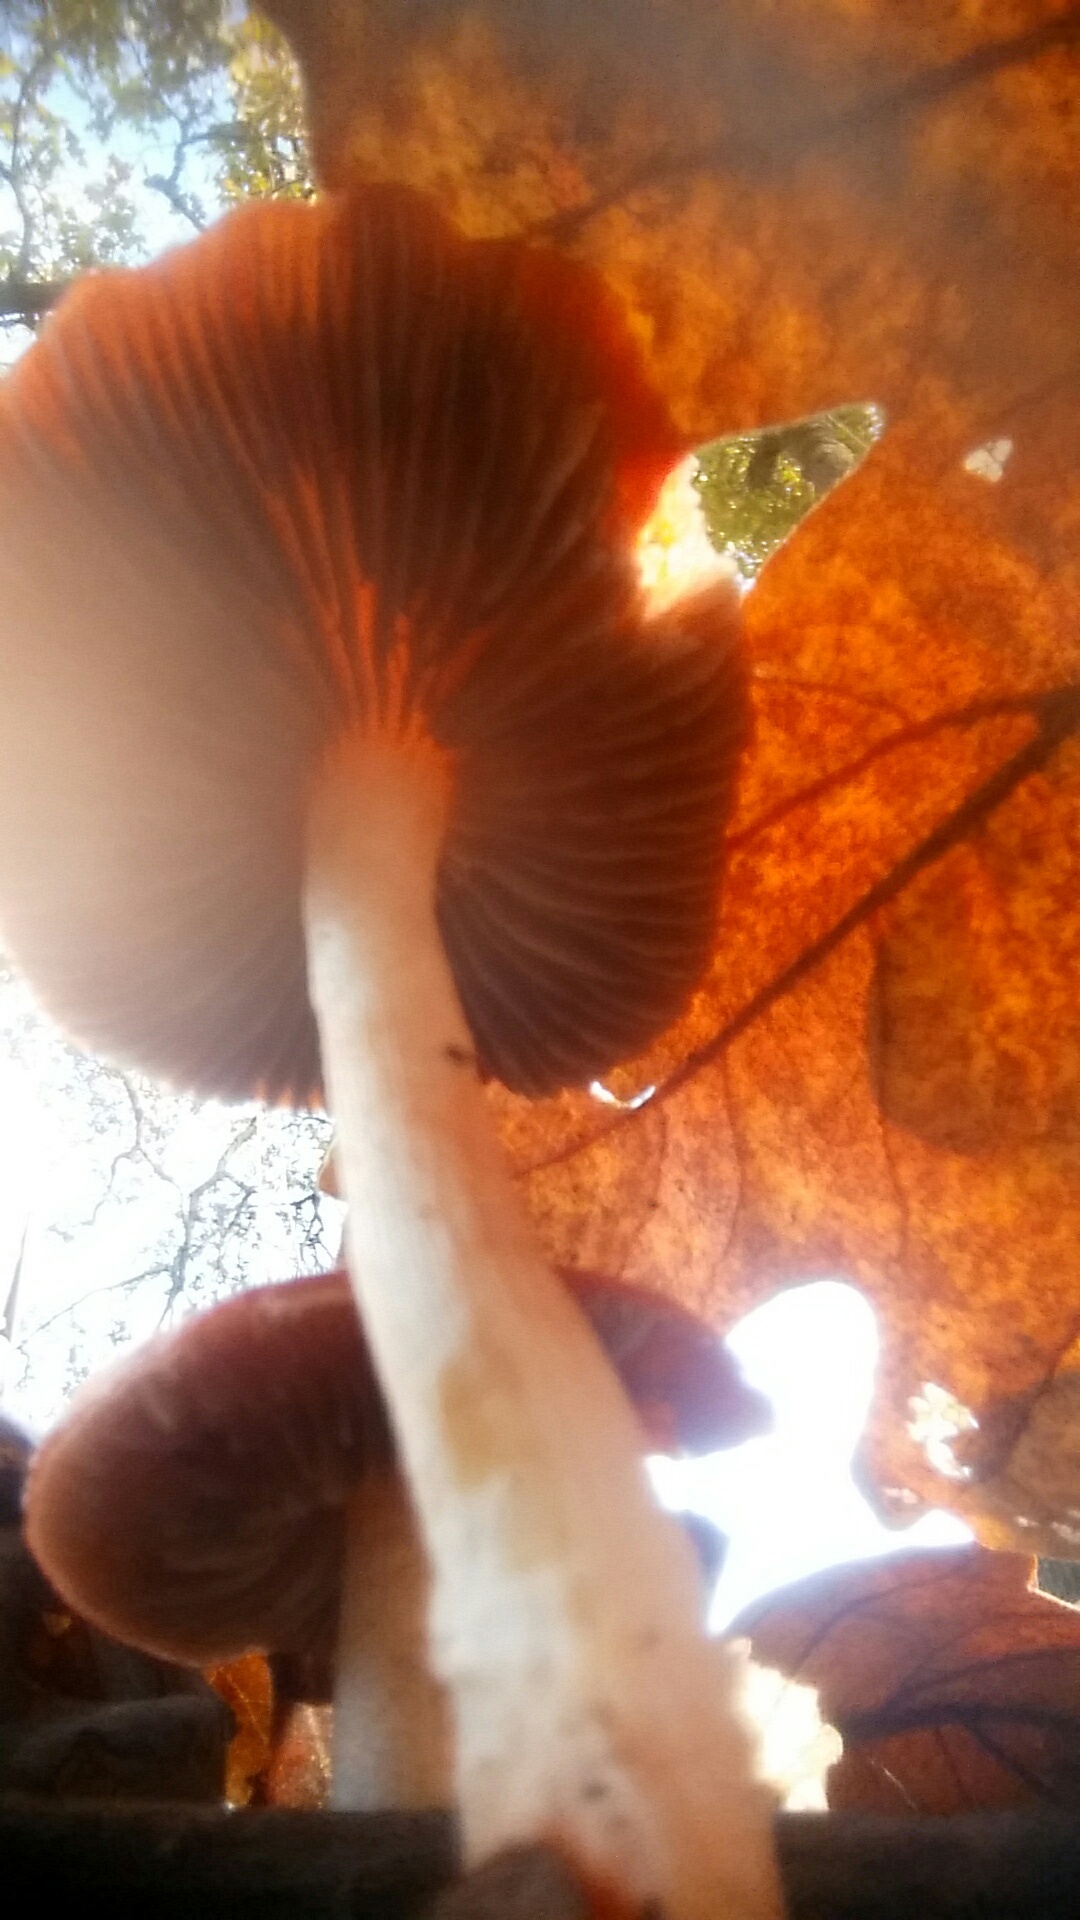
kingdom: Fungi
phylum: Basidiomycota
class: Agaricomycetes
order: Agaricales
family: Strophariaceae
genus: Leratiomyces
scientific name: Leratiomyces ceres
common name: Redlead roundhead
